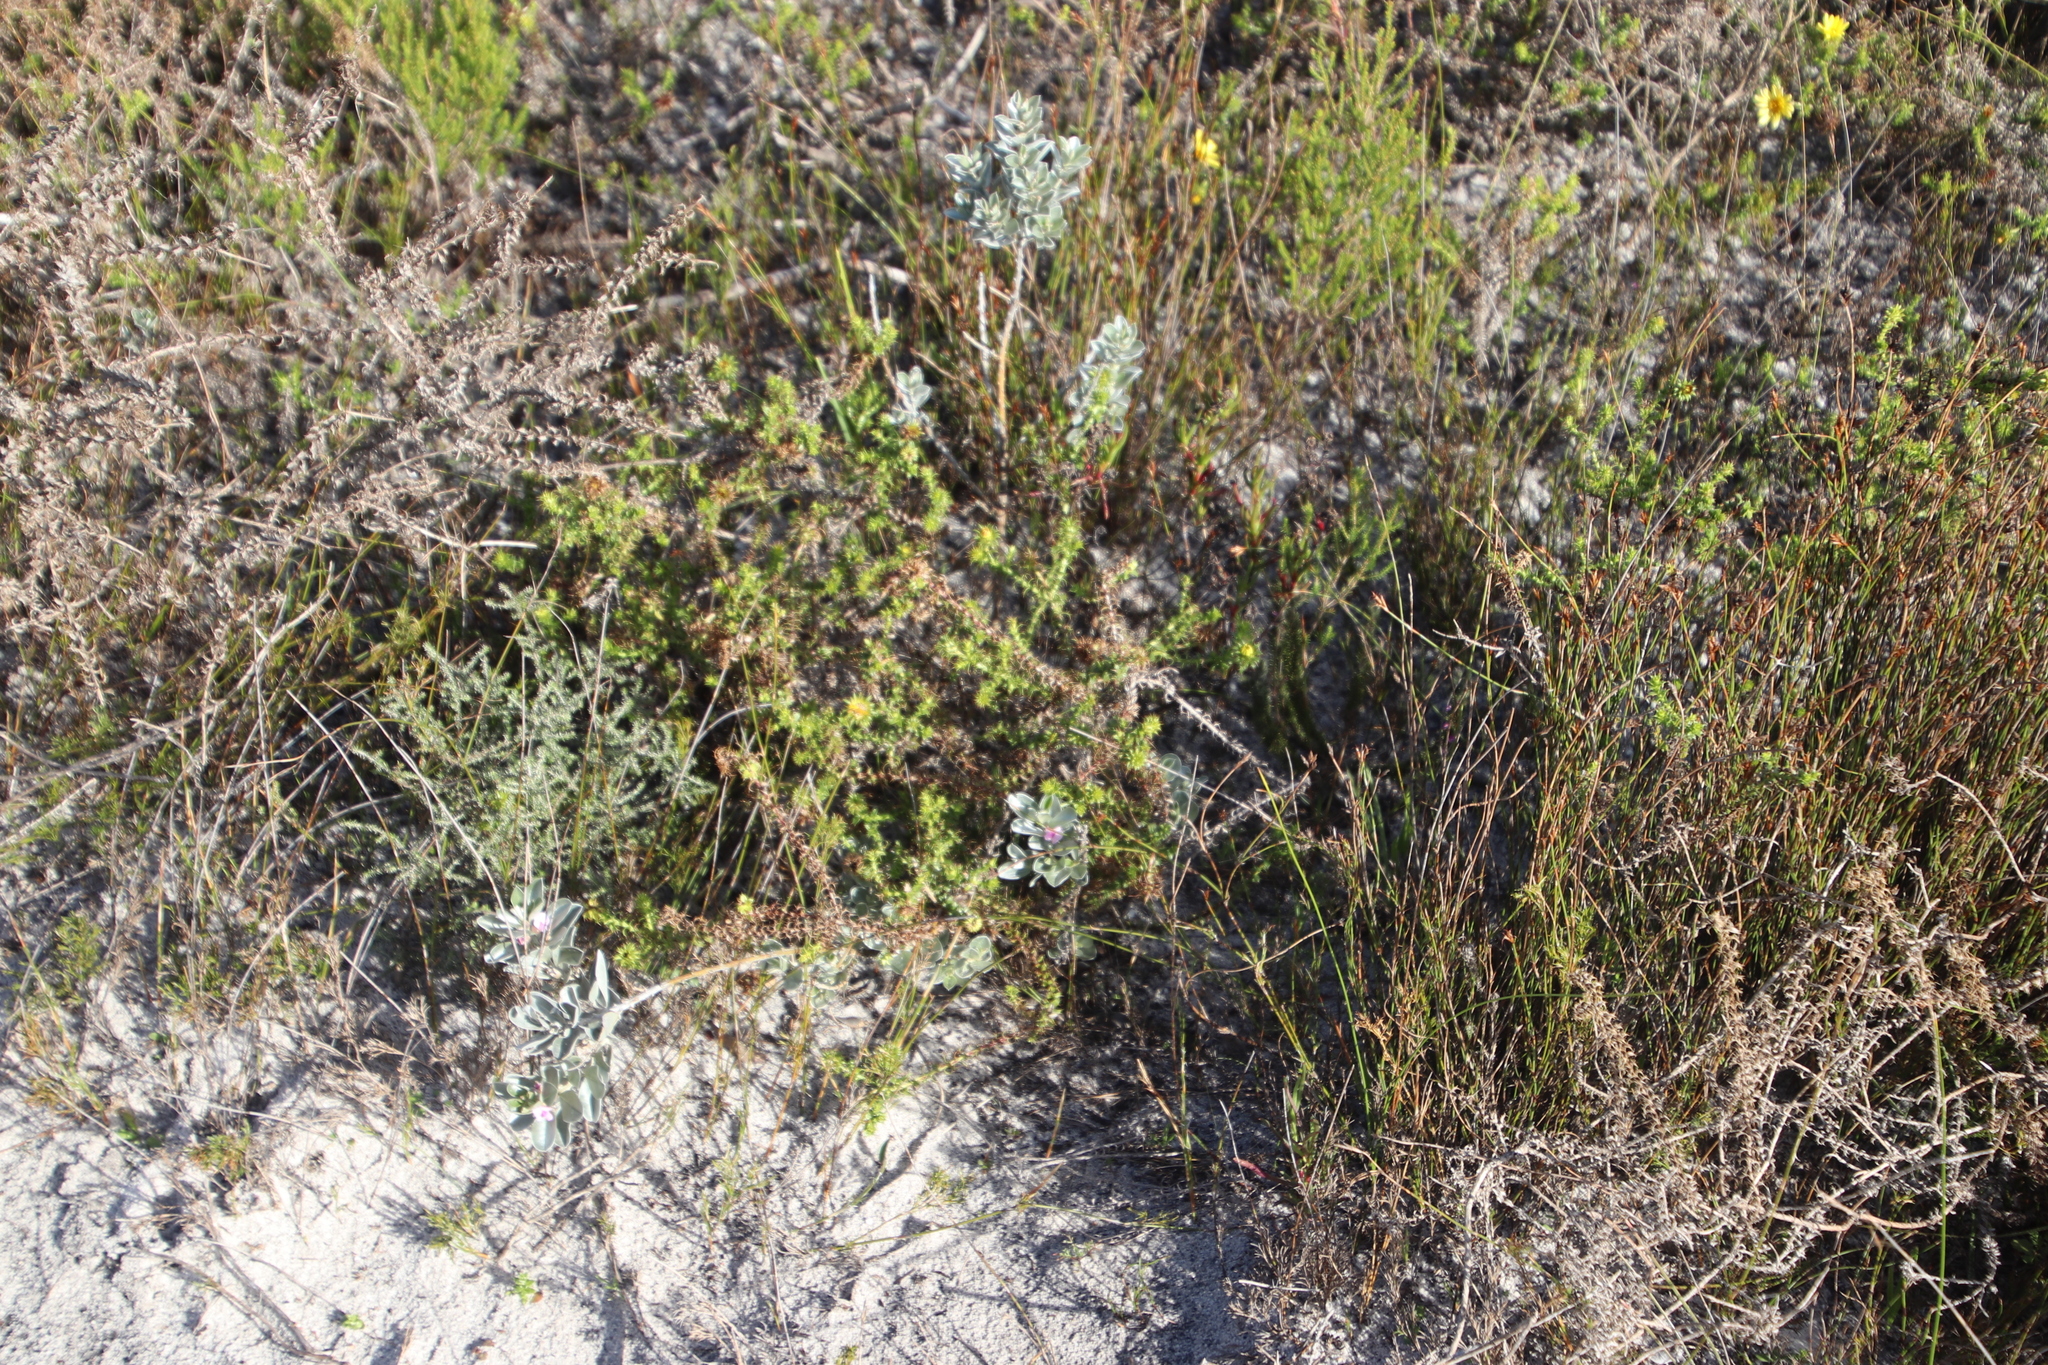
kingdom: Plantae
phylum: Tracheophyta
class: Magnoliopsida
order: Asterales
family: Asteraceae
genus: Cullumia
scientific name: Cullumia setosa
